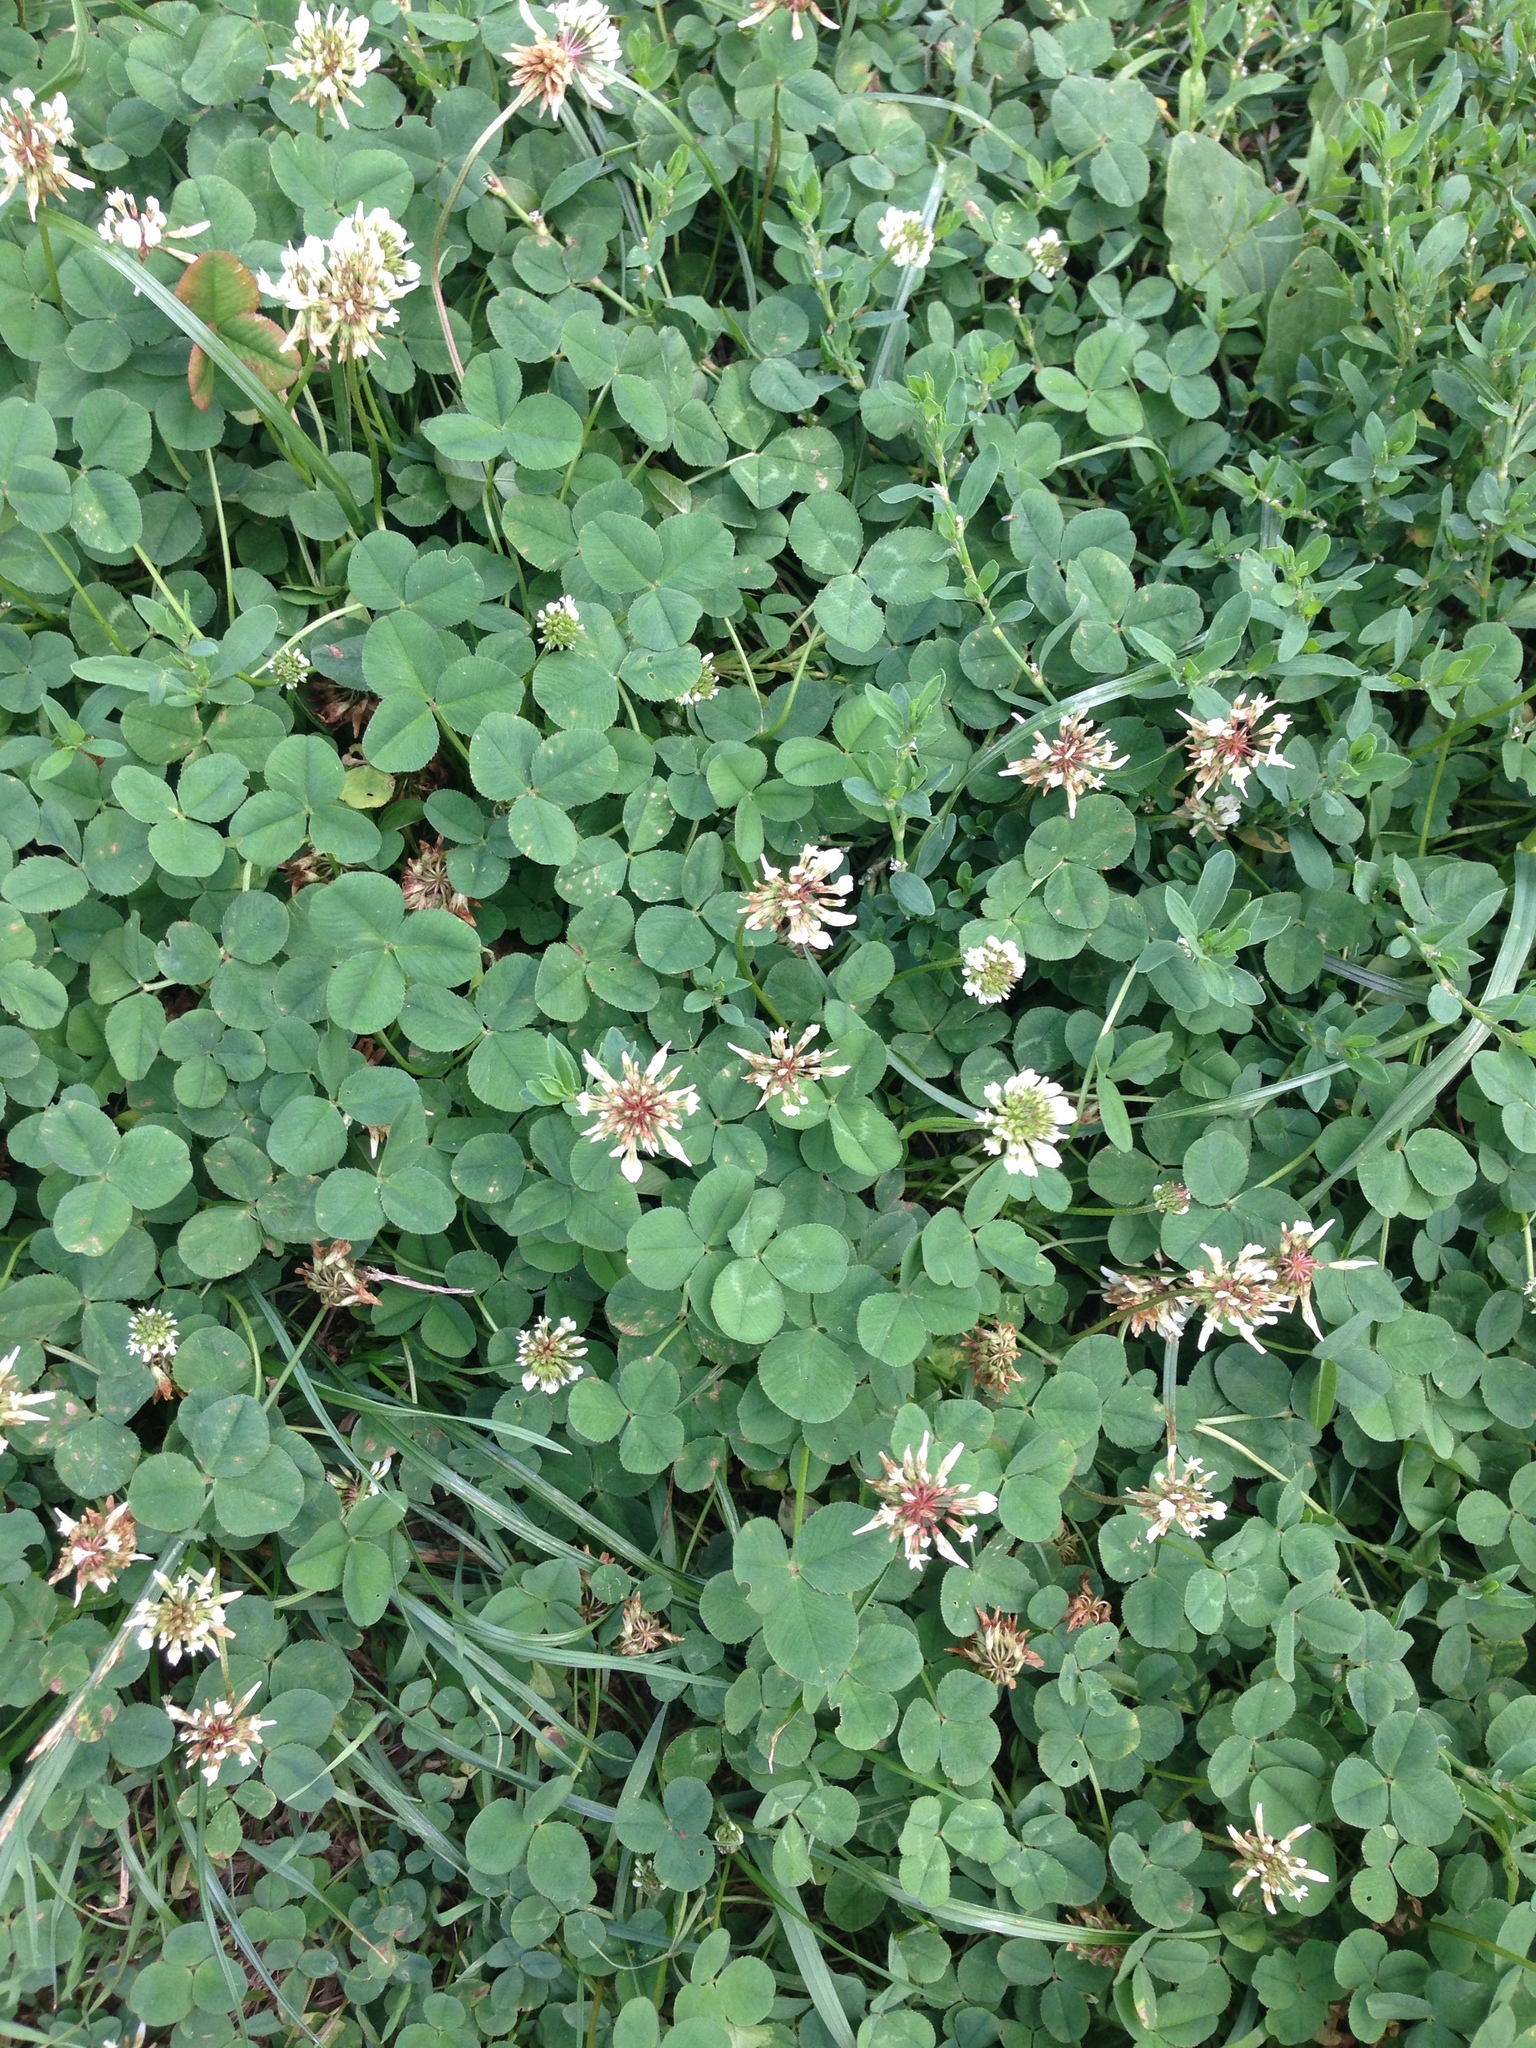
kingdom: Plantae
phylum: Tracheophyta
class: Magnoliopsida
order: Fabales
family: Fabaceae
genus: Trifolium
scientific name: Trifolium repens
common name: White clover
